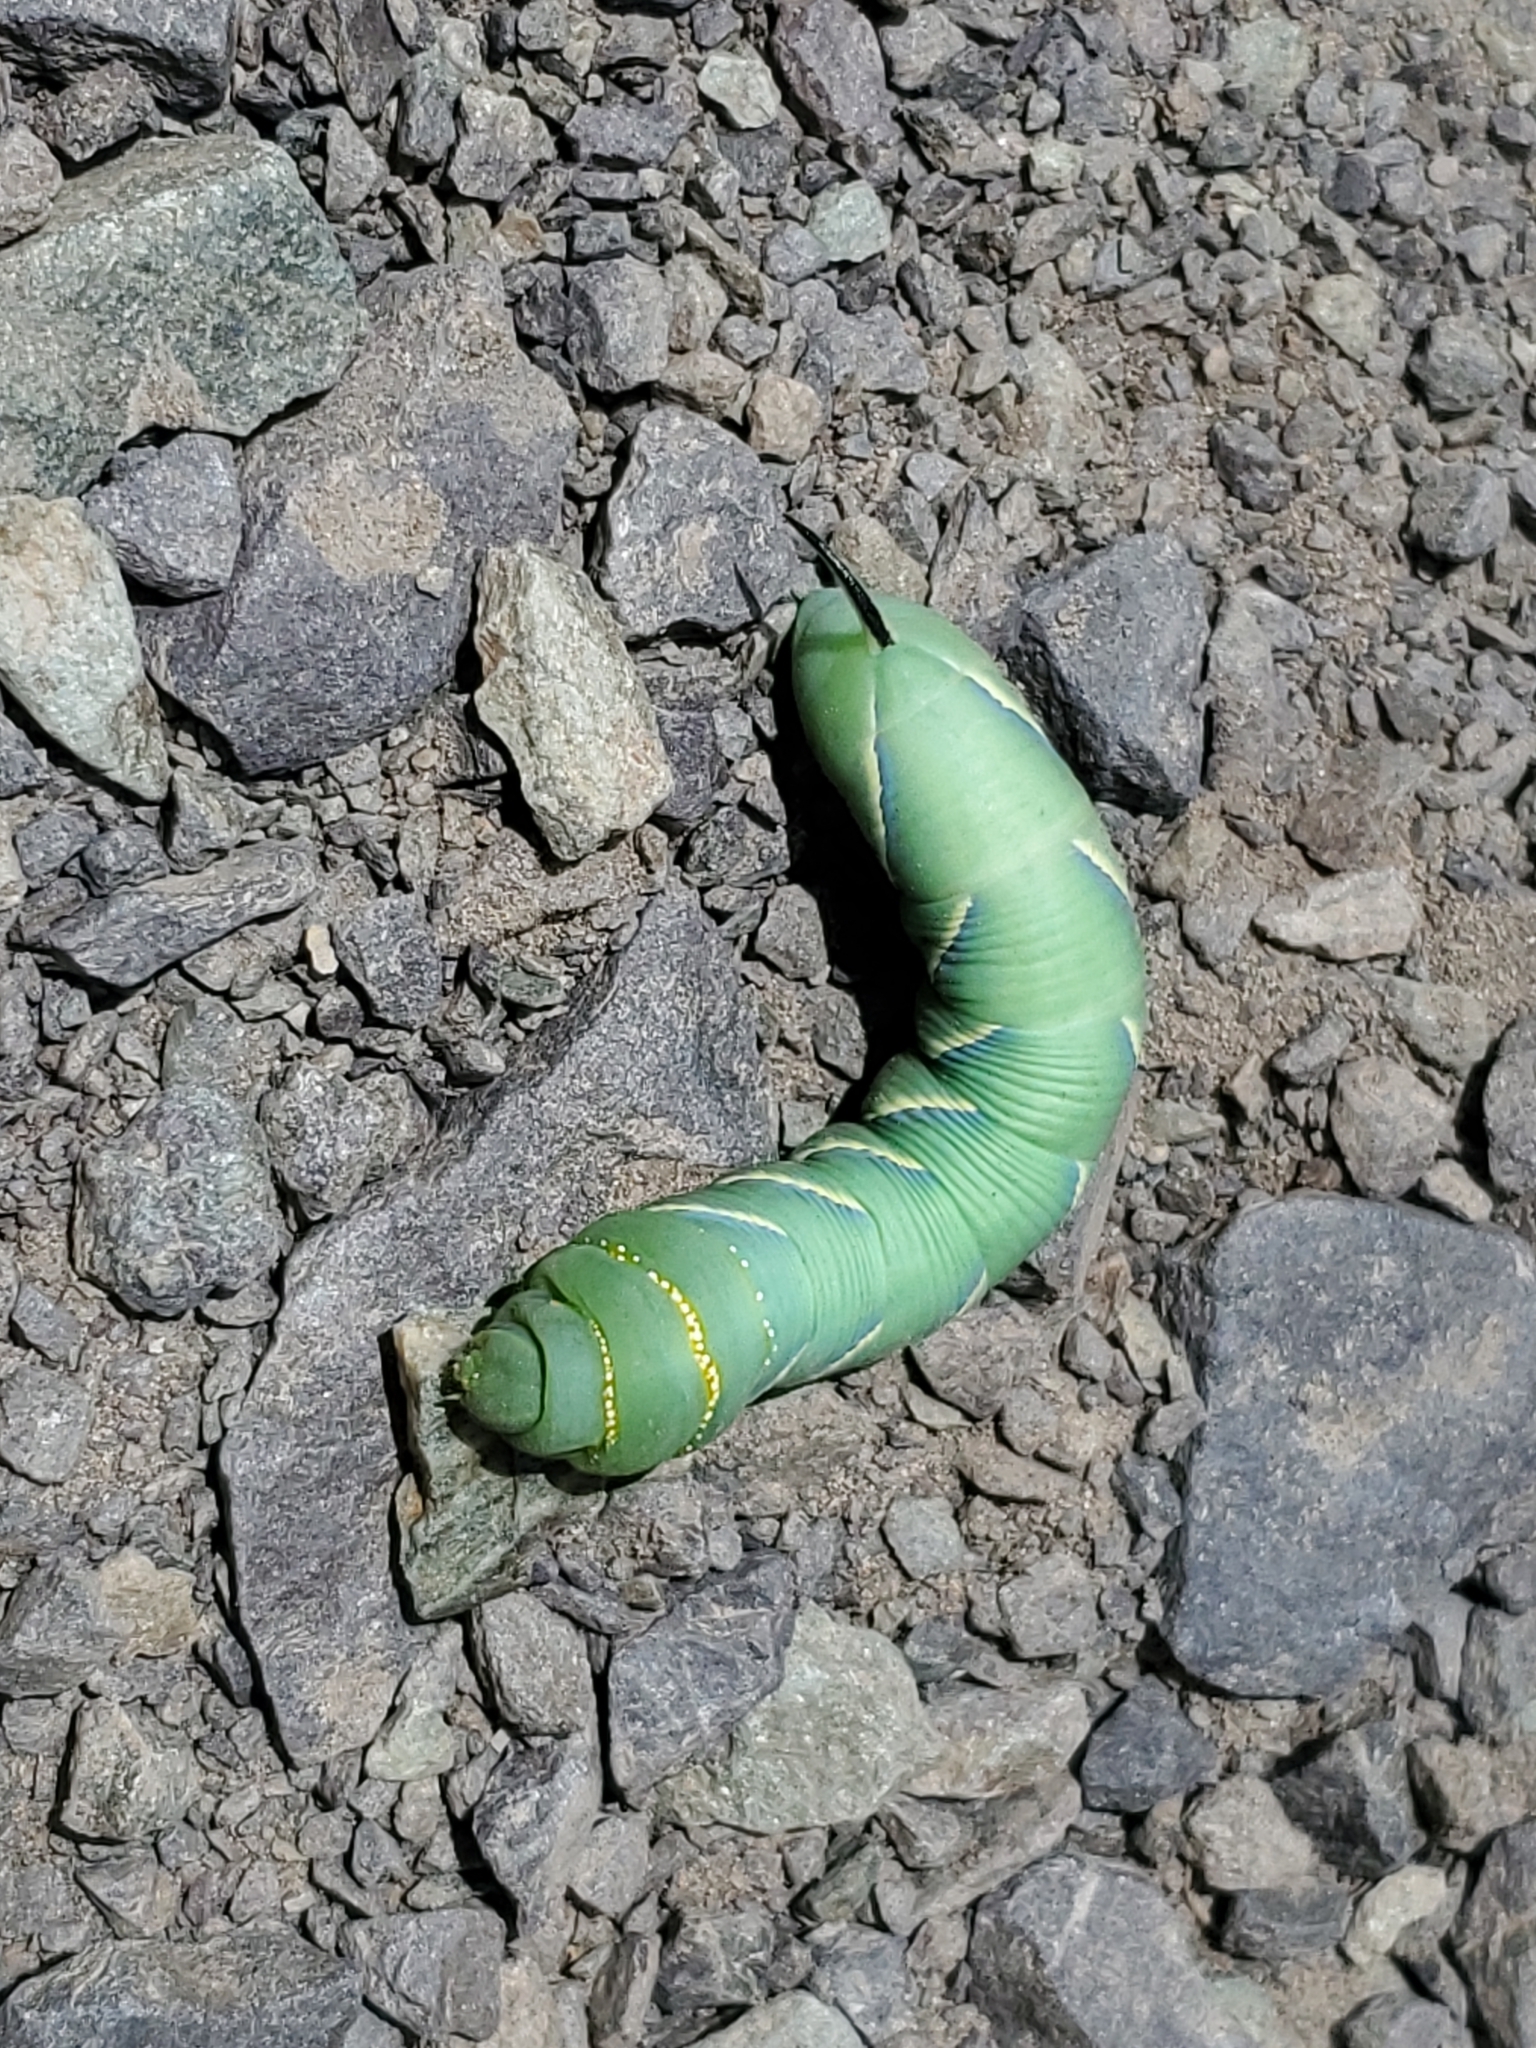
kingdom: Animalia
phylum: Arthropoda
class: Insecta
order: Lepidoptera
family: Sphingidae
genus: Sphinx
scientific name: Sphinx vashti
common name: Snowberry sphinx
